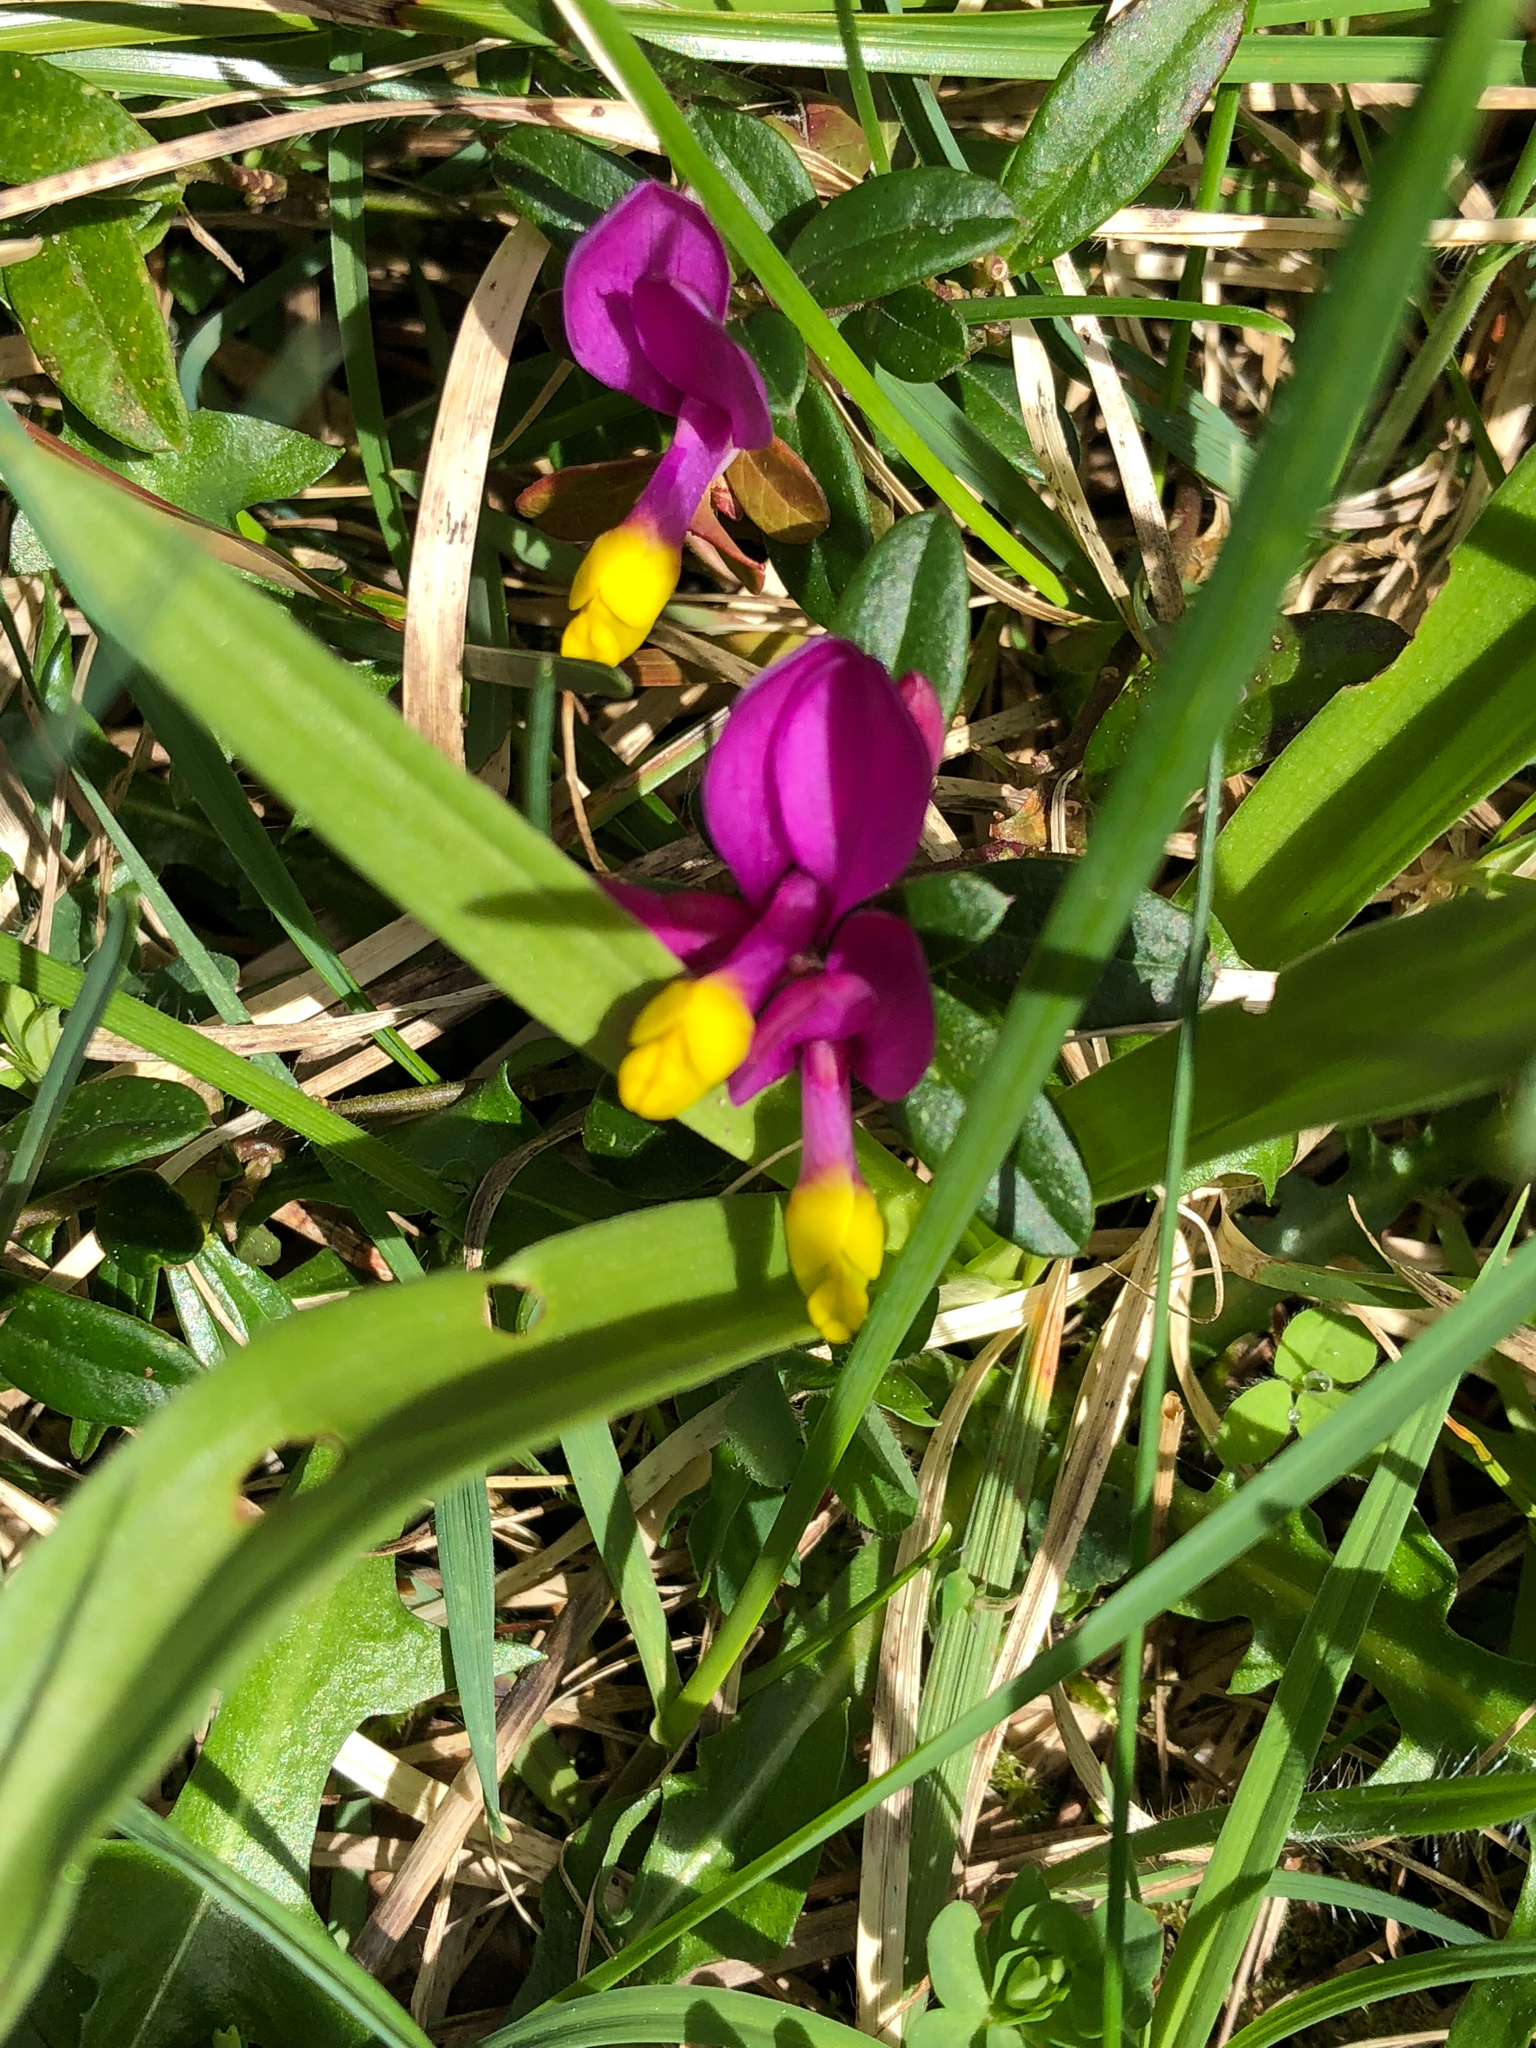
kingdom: Plantae
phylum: Tracheophyta
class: Magnoliopsida
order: Fabales
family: Polygalaceae
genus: Polygaloides
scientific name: Polygaloides chamaebuxus
